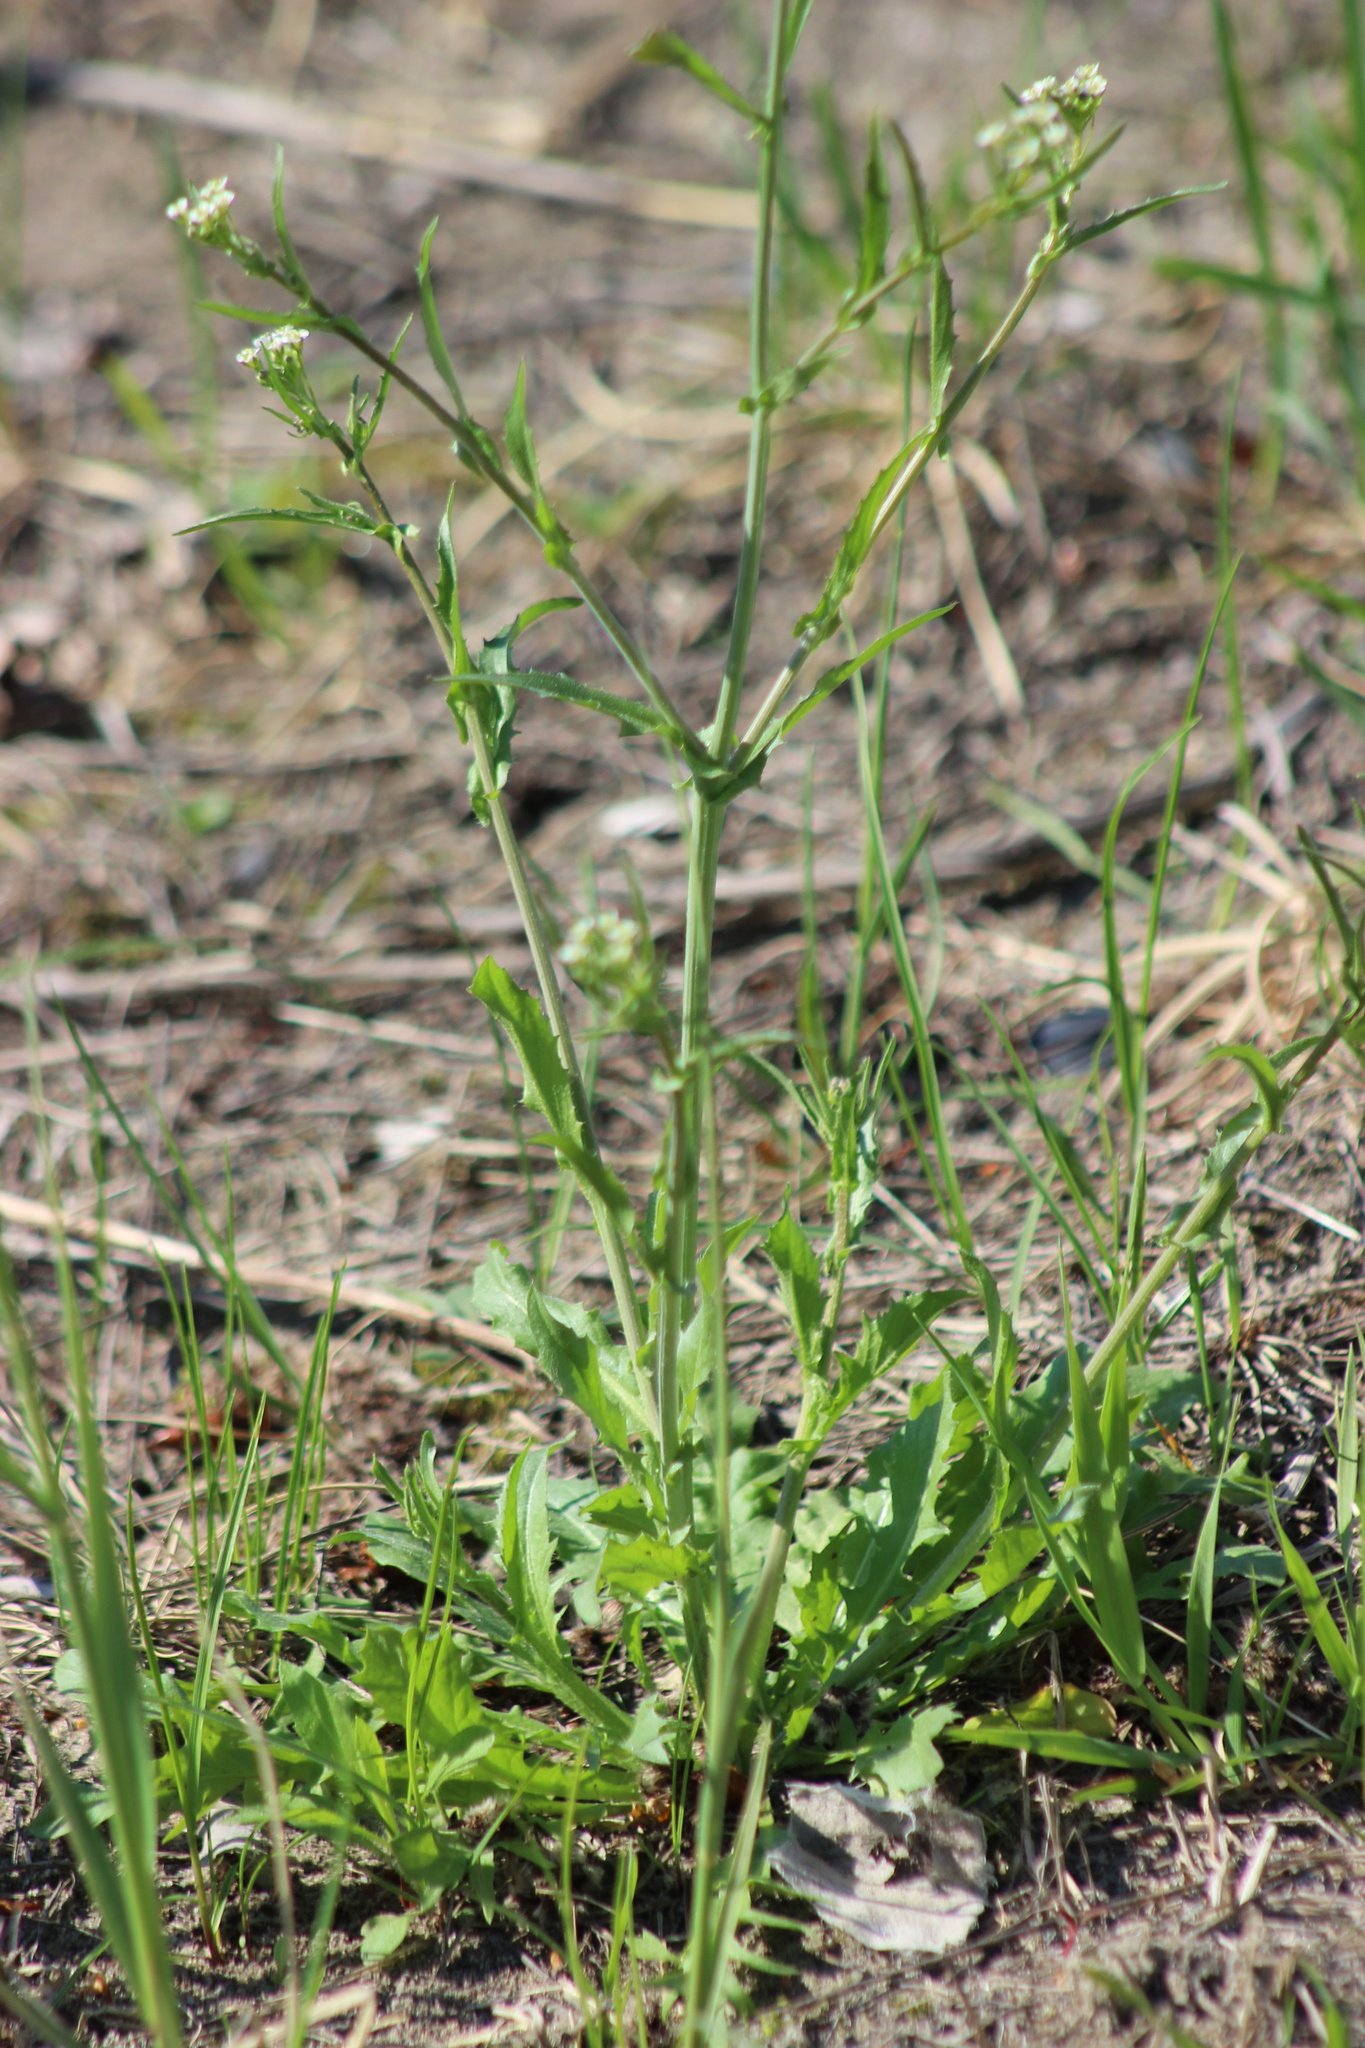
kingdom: Plantae
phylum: Tracheophyta
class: Magnoliopsida
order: Brassicales
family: Brassicaceae
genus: Capsella
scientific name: Capsella bursa-pastoris
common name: Shepherd's purse
